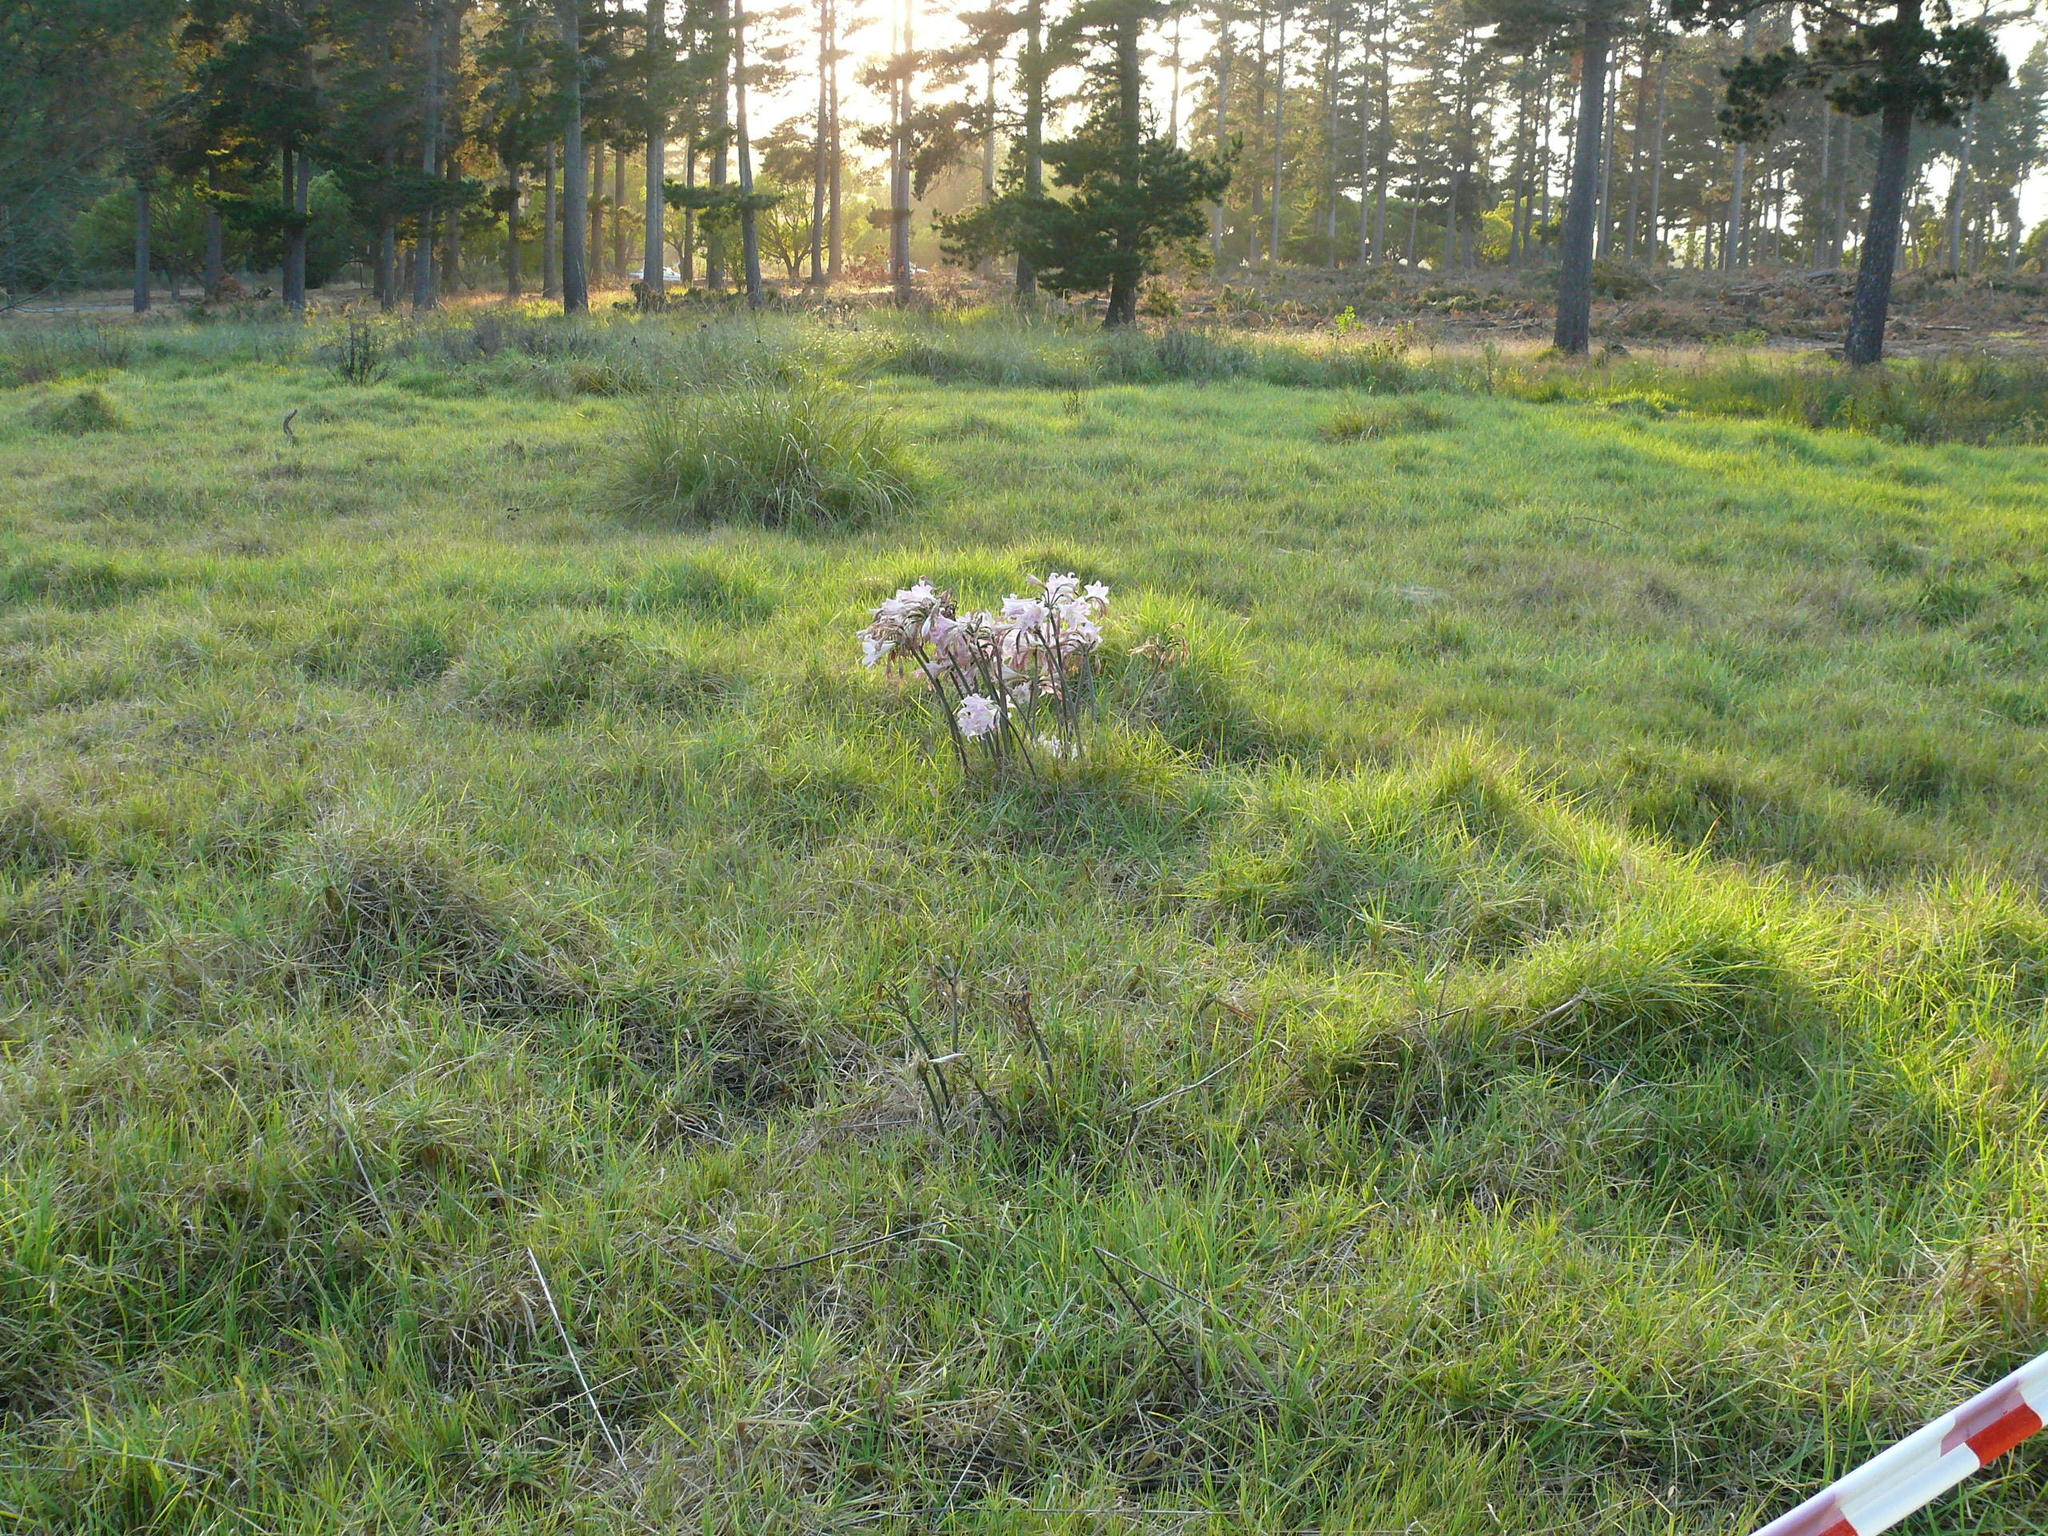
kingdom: Plantae
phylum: Tracheophyta
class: Liliopsida
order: Asparagales
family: Amaryllidaceae
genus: Amaryllis
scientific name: Amaryllis belladonna
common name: Jersey lily
